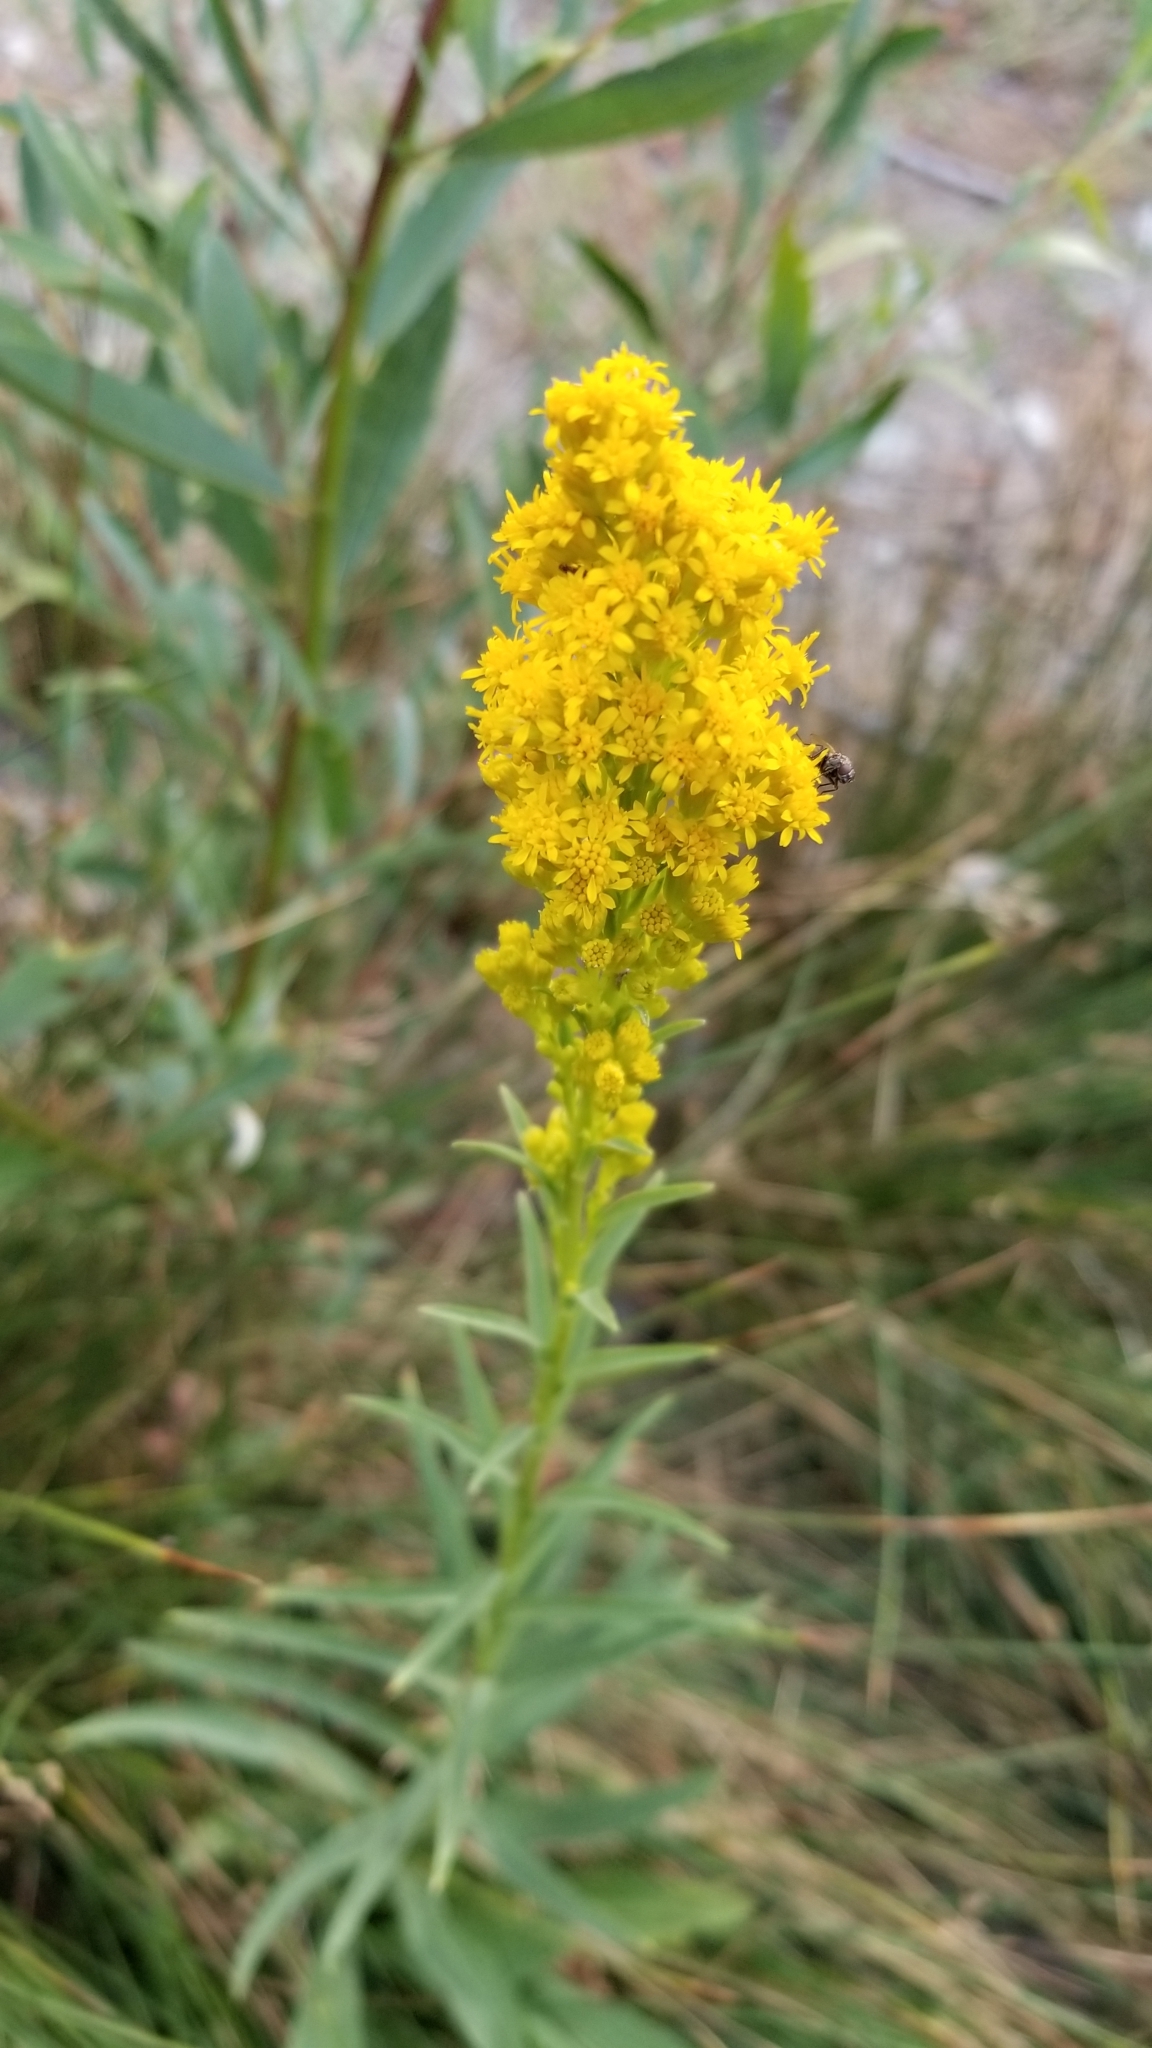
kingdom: Plantae
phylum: Tracheophyta
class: Magnoliopsida
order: Asterales
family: Asteraceae
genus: Solidago
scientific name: Solidago velutina
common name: Three-nerve goldenrod
